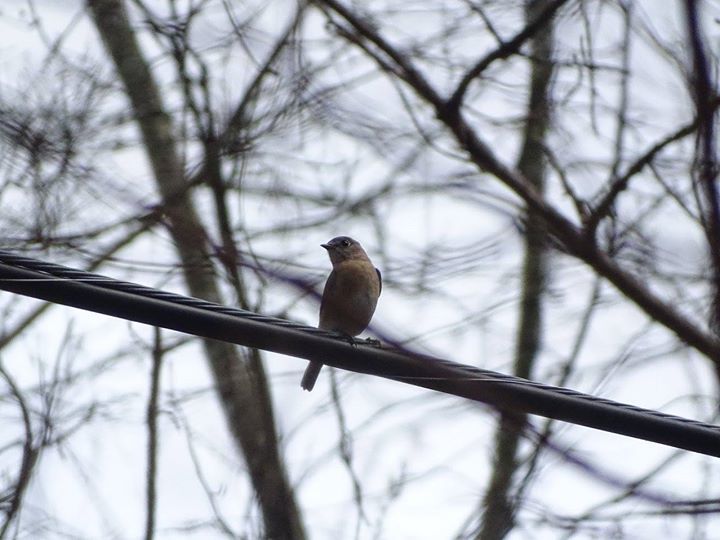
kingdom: Animalia
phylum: Chordata
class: Aves
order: Passeriformes
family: Turdidae
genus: Sialia
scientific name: Sialia sialis
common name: Eastern bluebird
